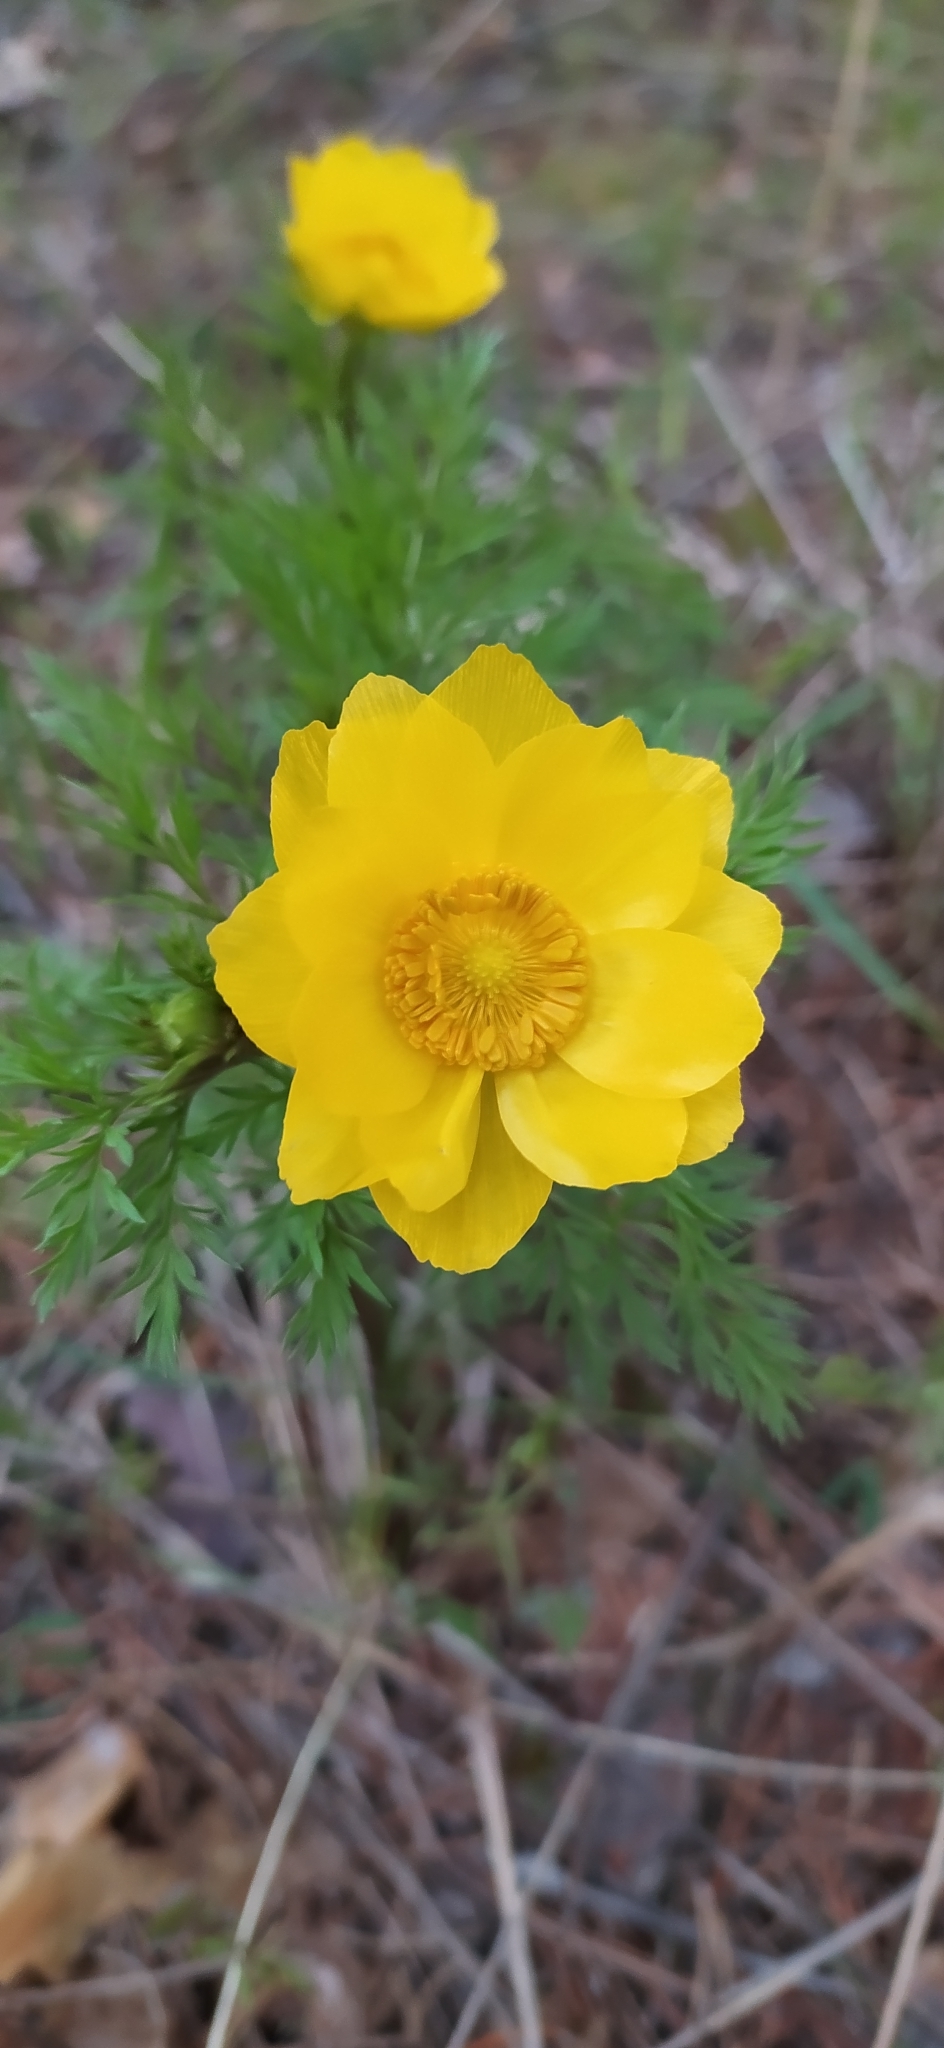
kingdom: Plantae
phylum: Tracheophyta
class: Magnoliopsida
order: Ranunculales
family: Ranunculaceae
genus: Adonis
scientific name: Adonis
